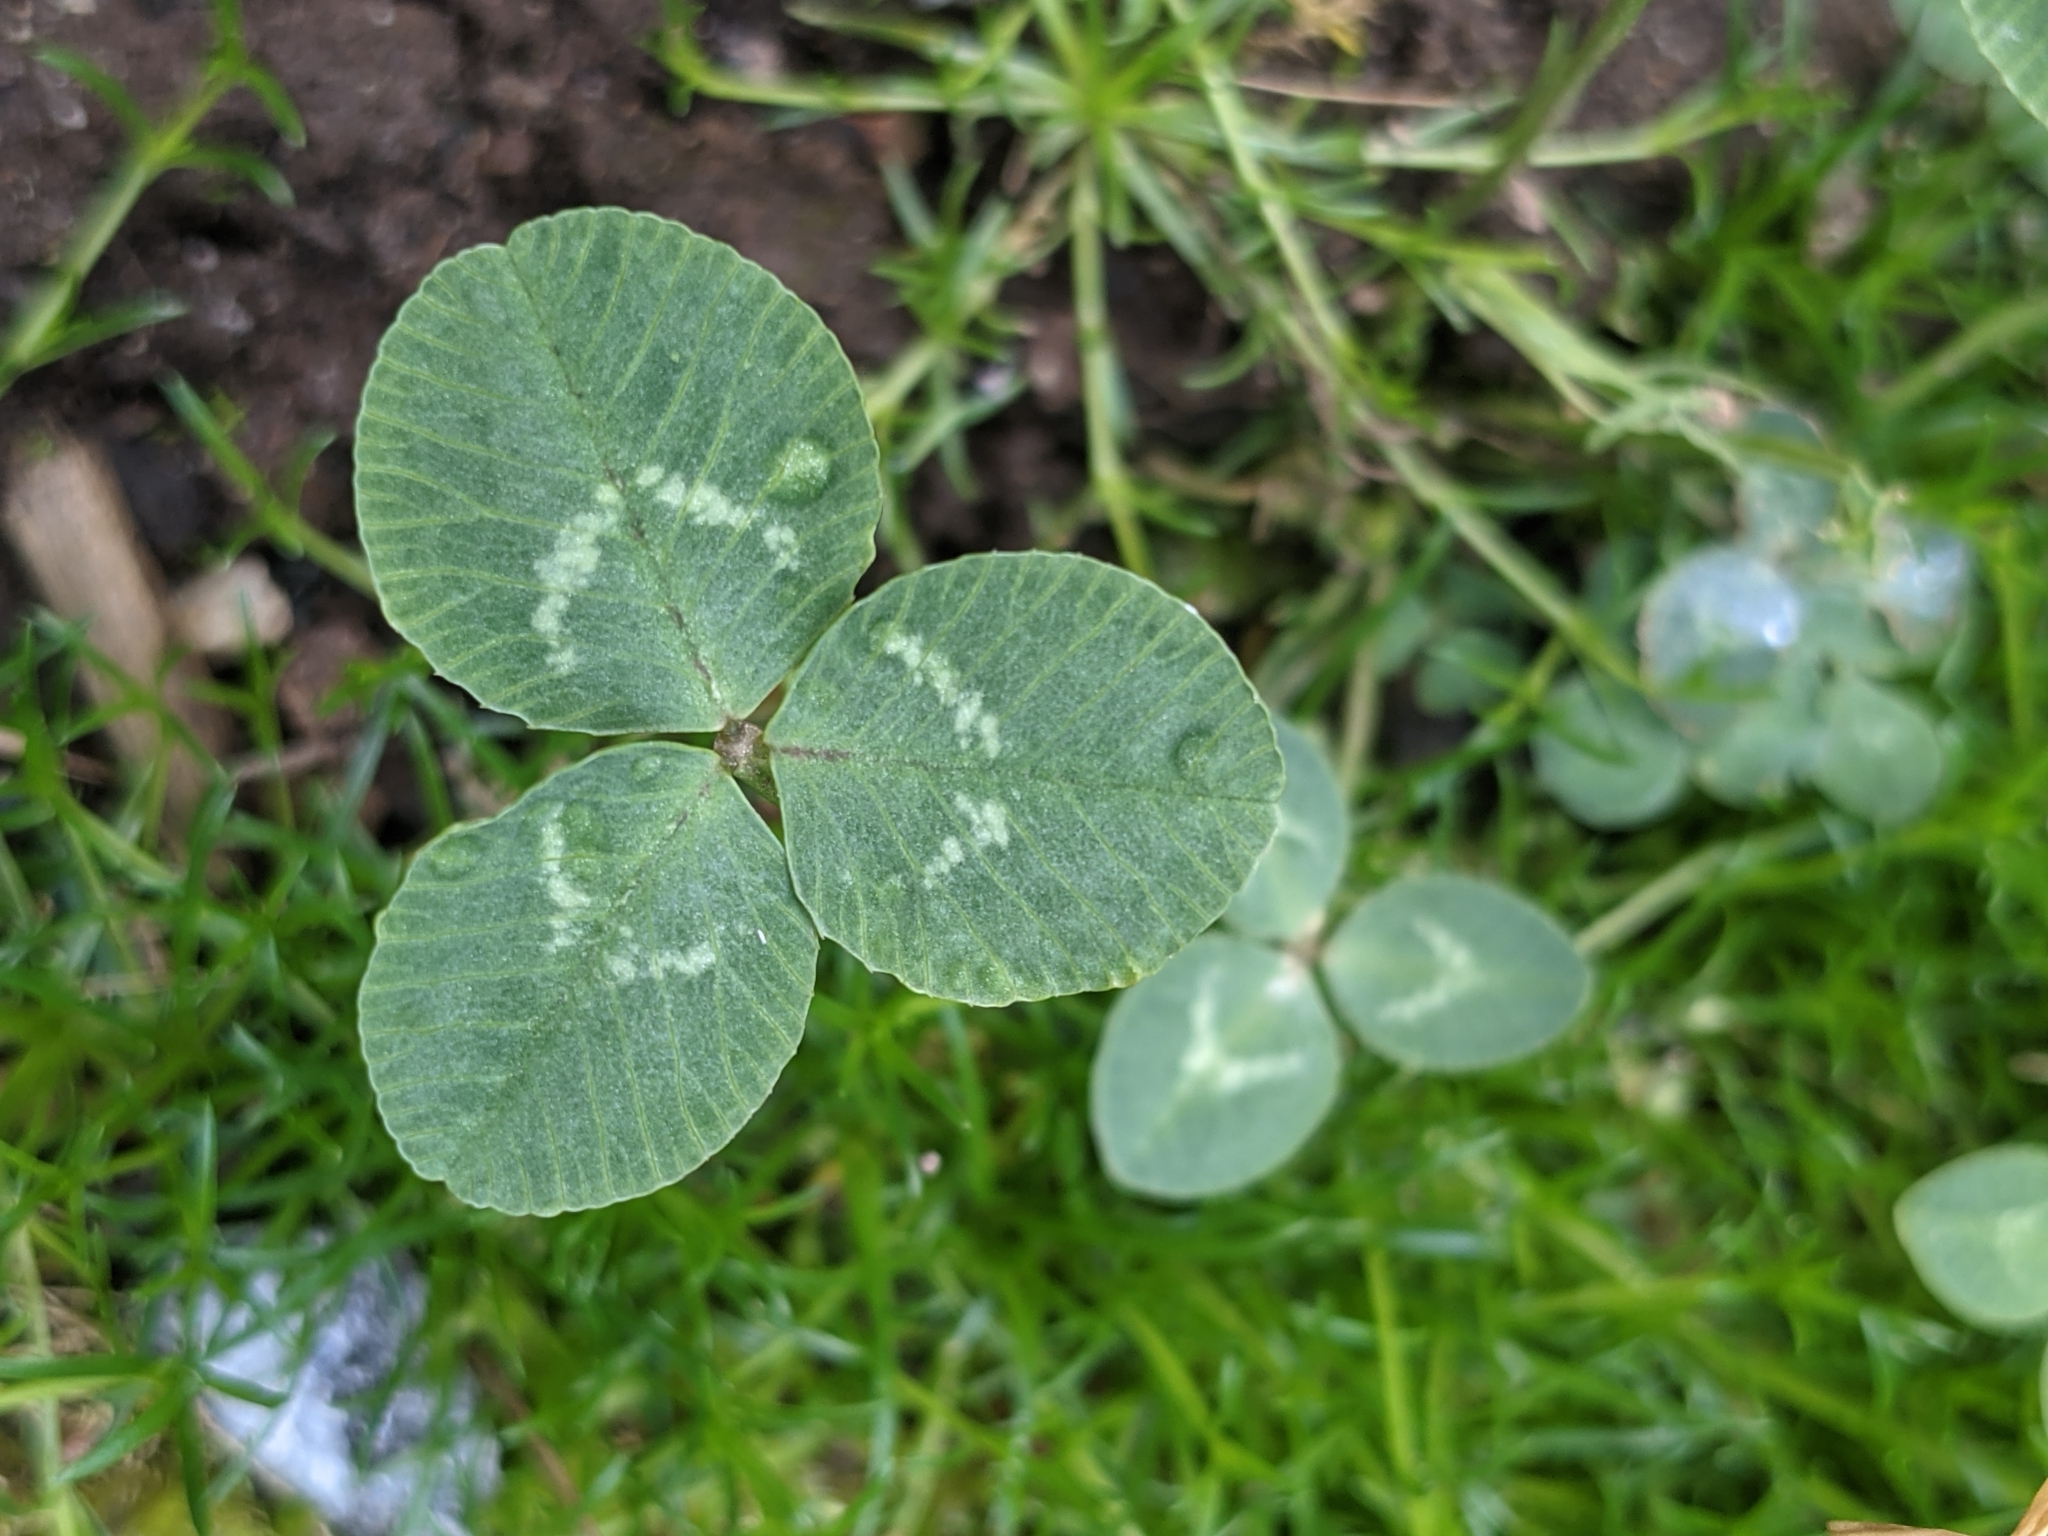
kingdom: Plantae
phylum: Tracheophyta
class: Magnoliopsida
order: Fabales
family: Fabaceae
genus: Trifolium
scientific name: Trifolium repens
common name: White clover
